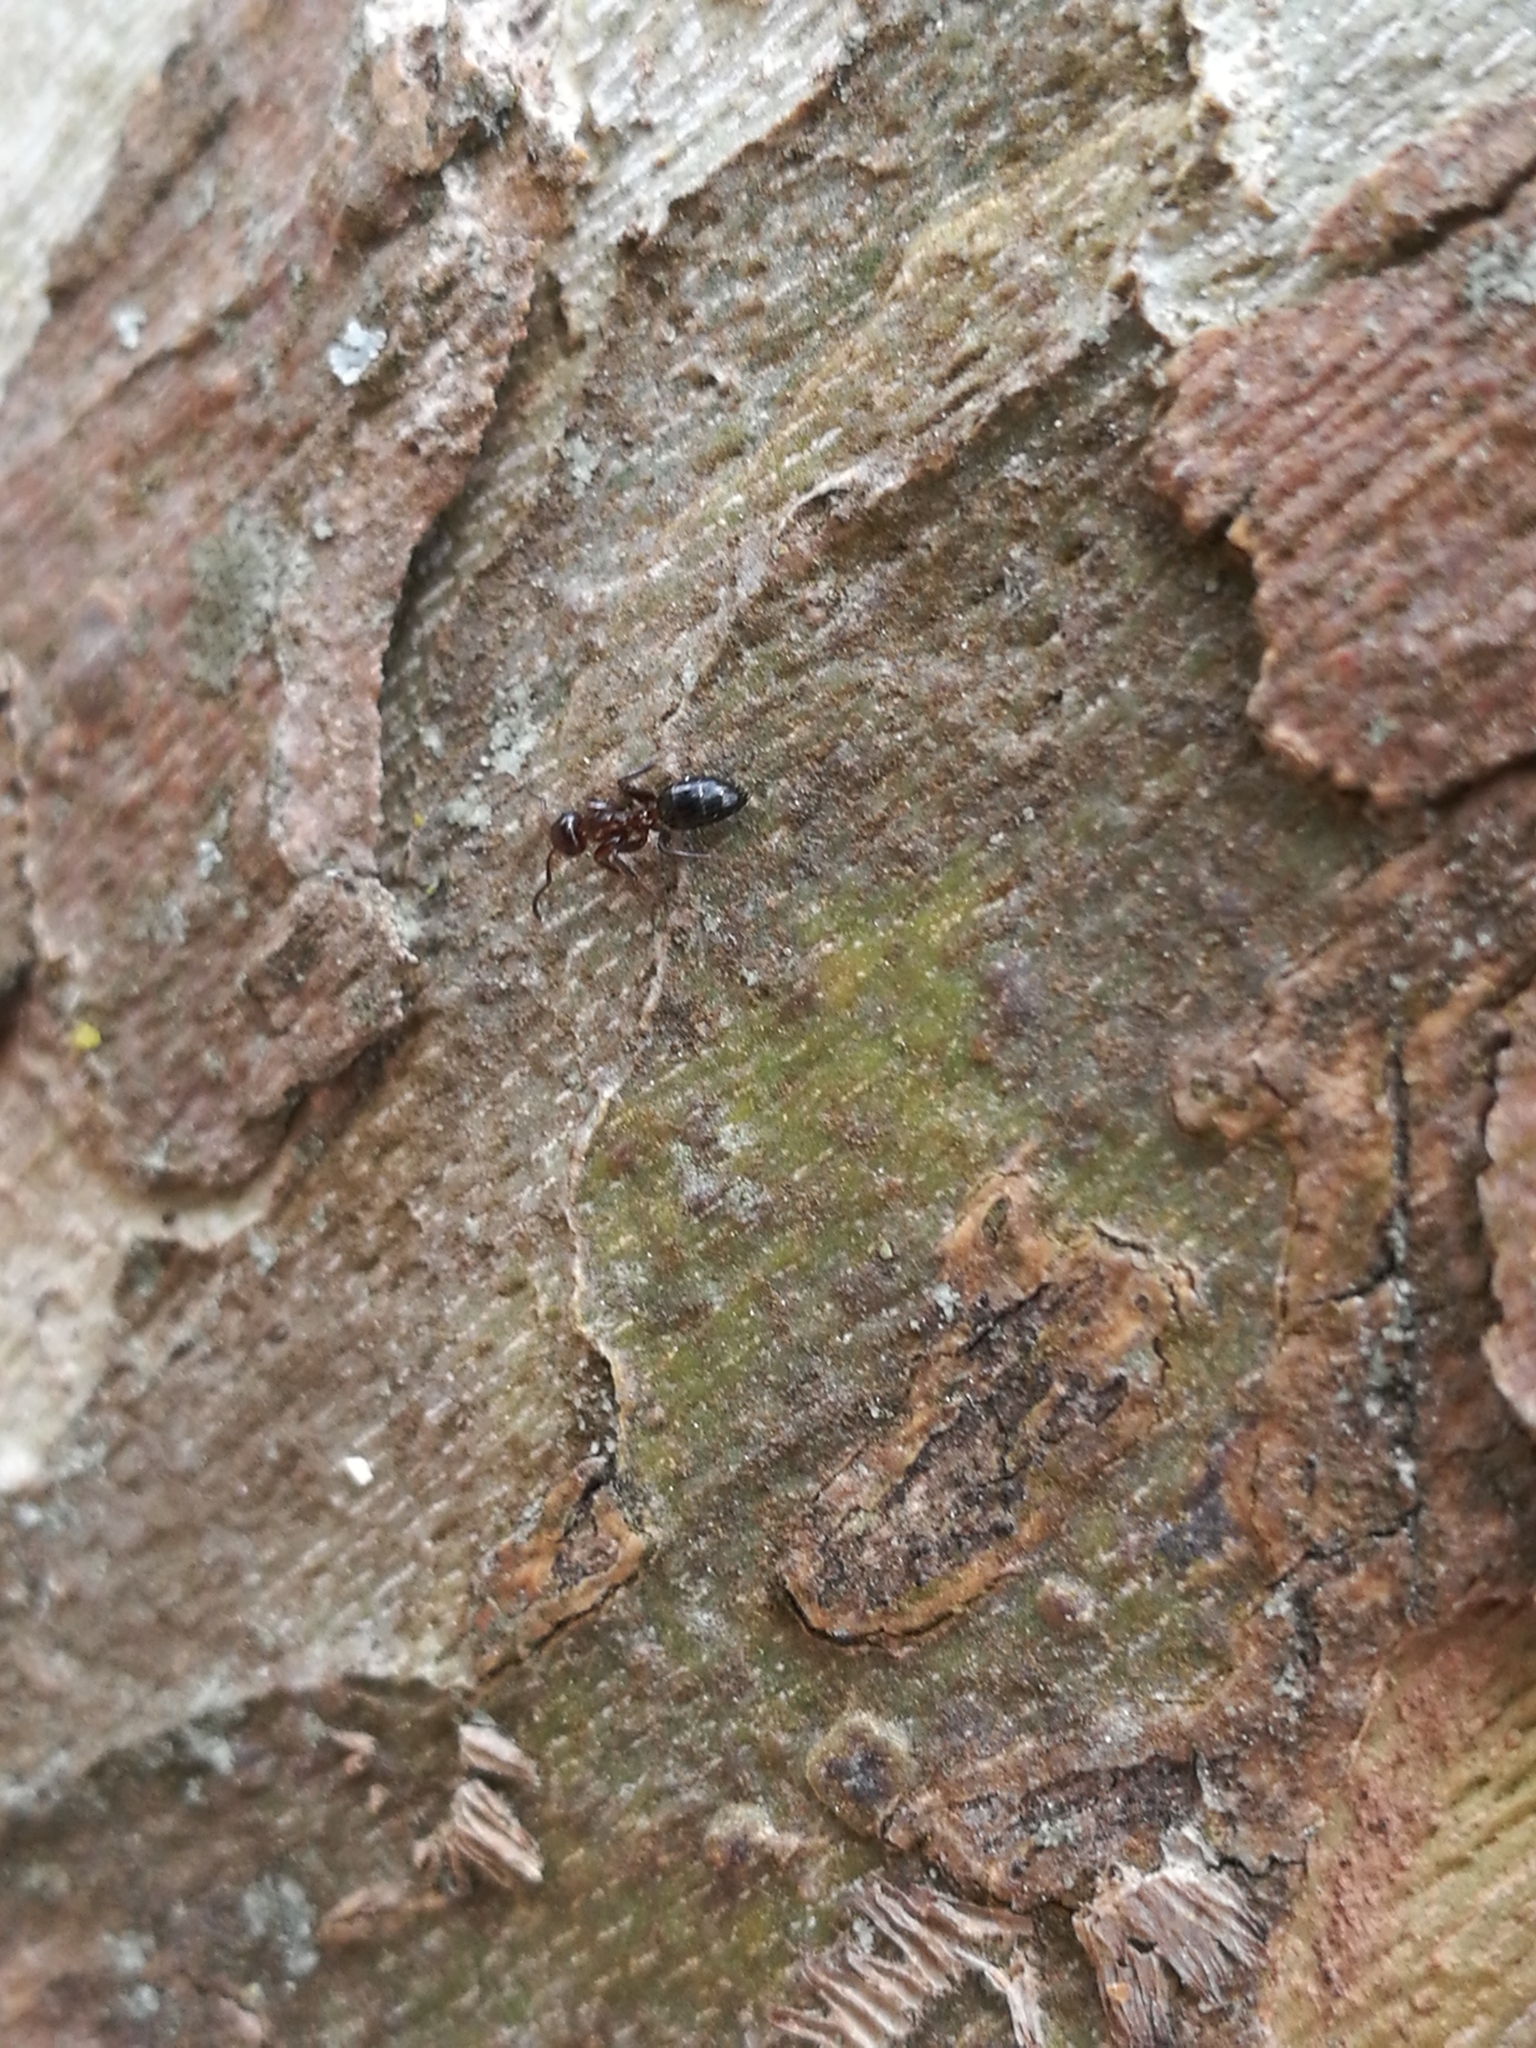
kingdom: Animalia
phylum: Arthropoda
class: Insecta
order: Hymenoptera
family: Formicidae
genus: Camponotus
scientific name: Camponotus truncatus
